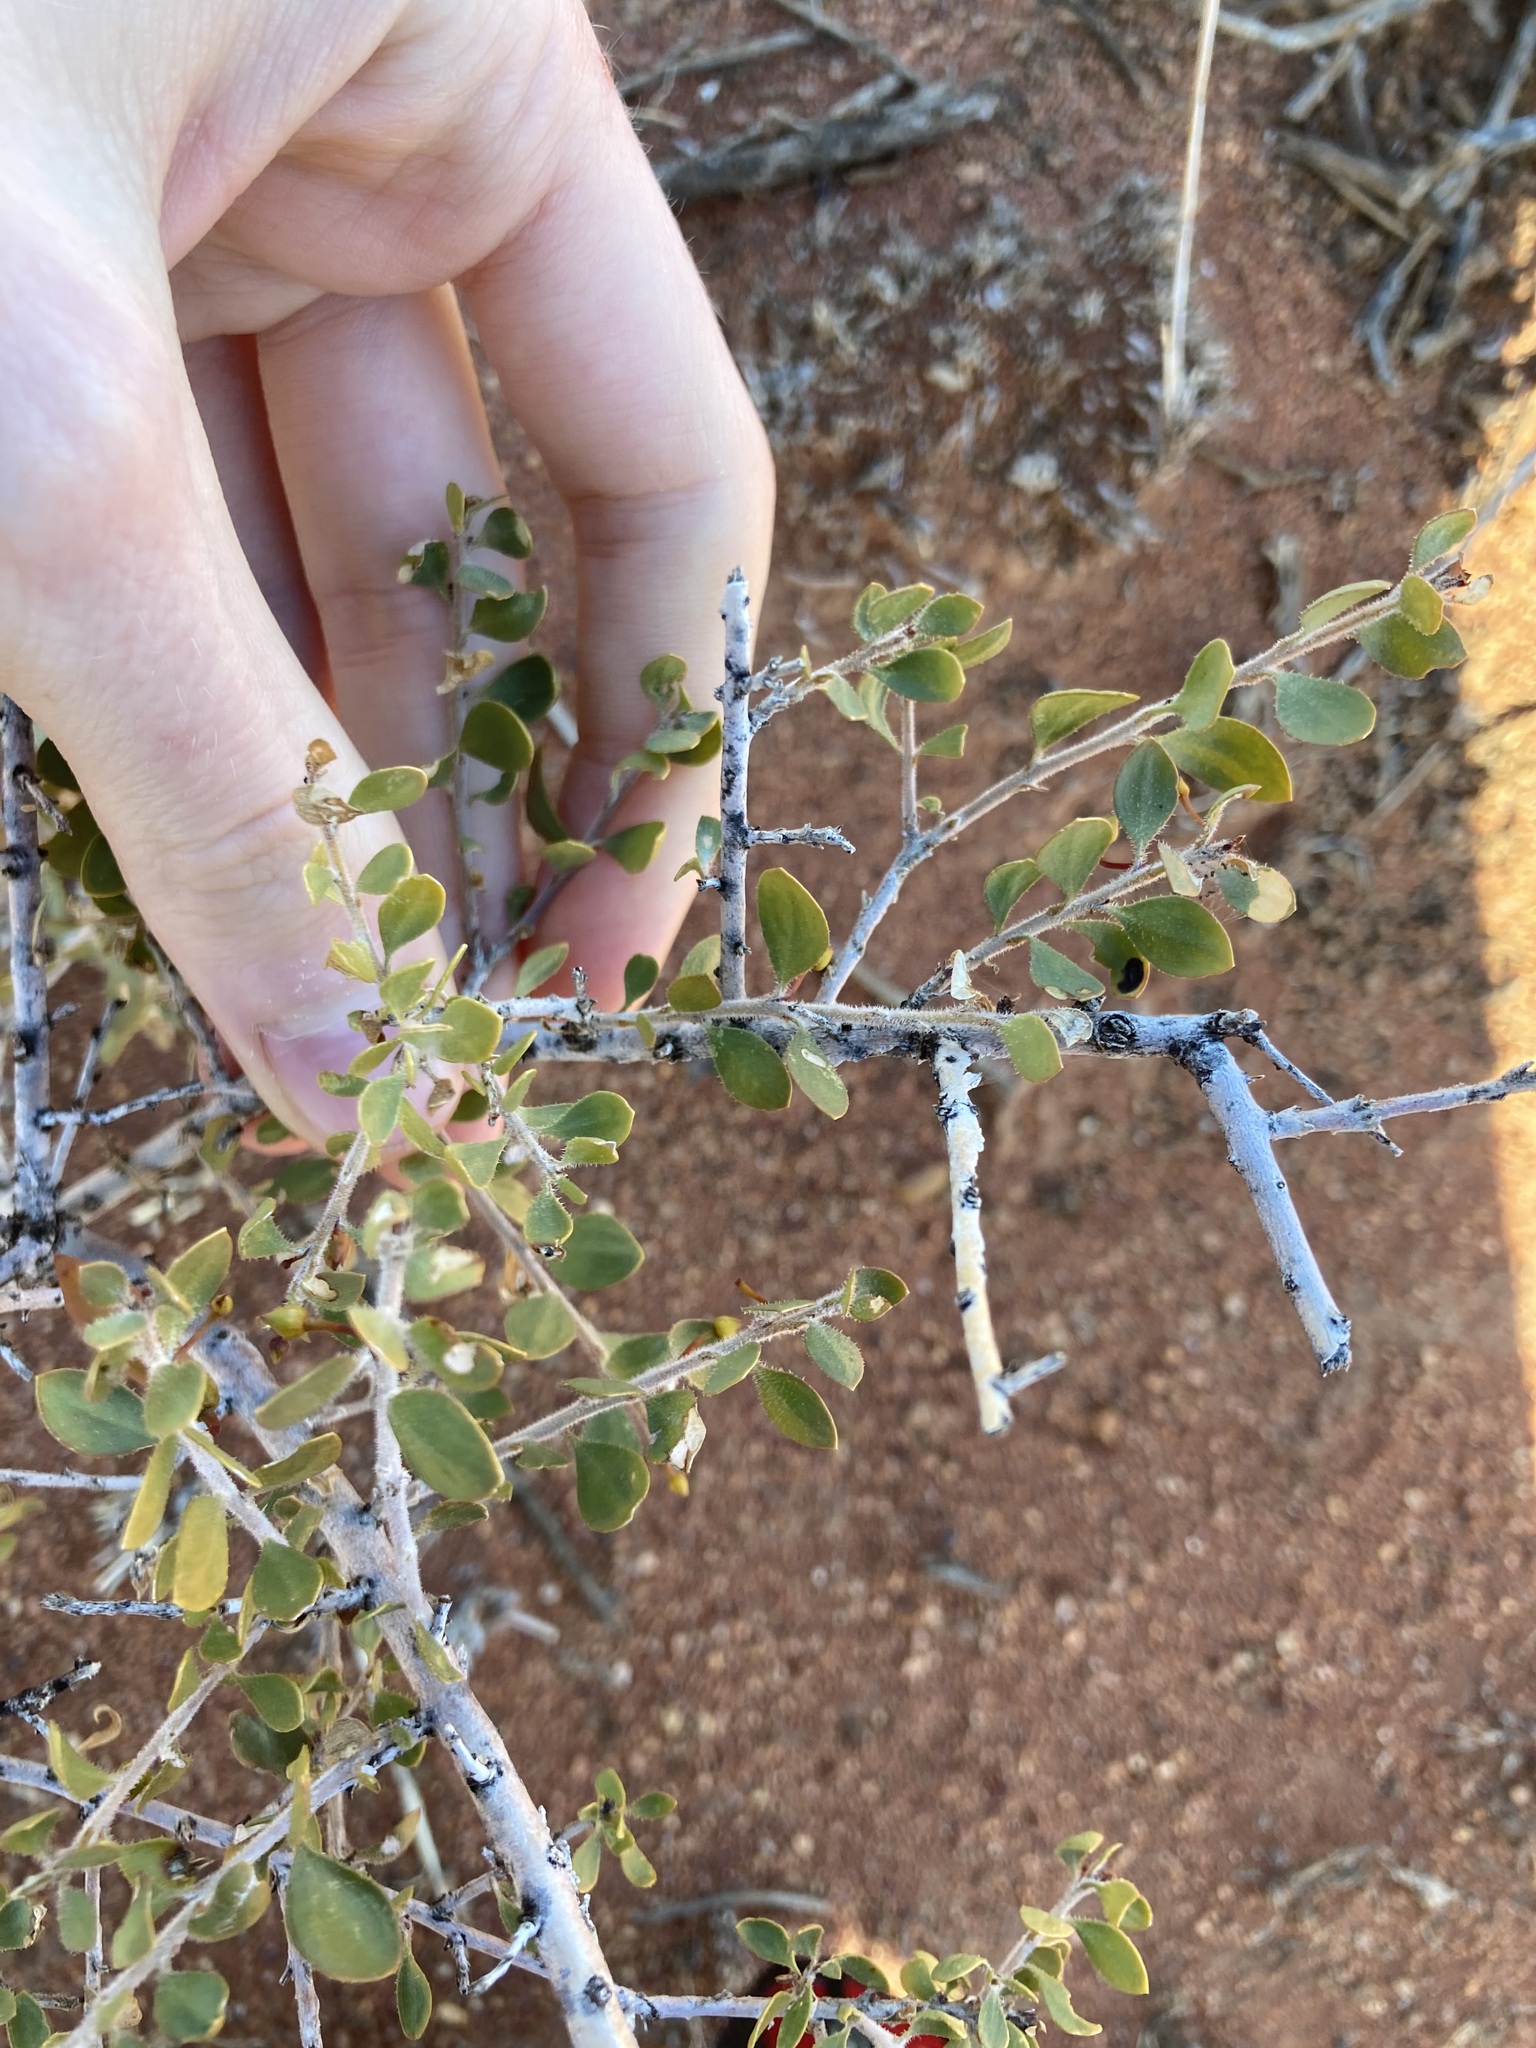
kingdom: Plantae
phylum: Tracheophyta
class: Magnoliopsida
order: Lamiales
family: Scrophulariaceae
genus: Eremophila
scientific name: Eremophila maculata
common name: Fuchsiabush
